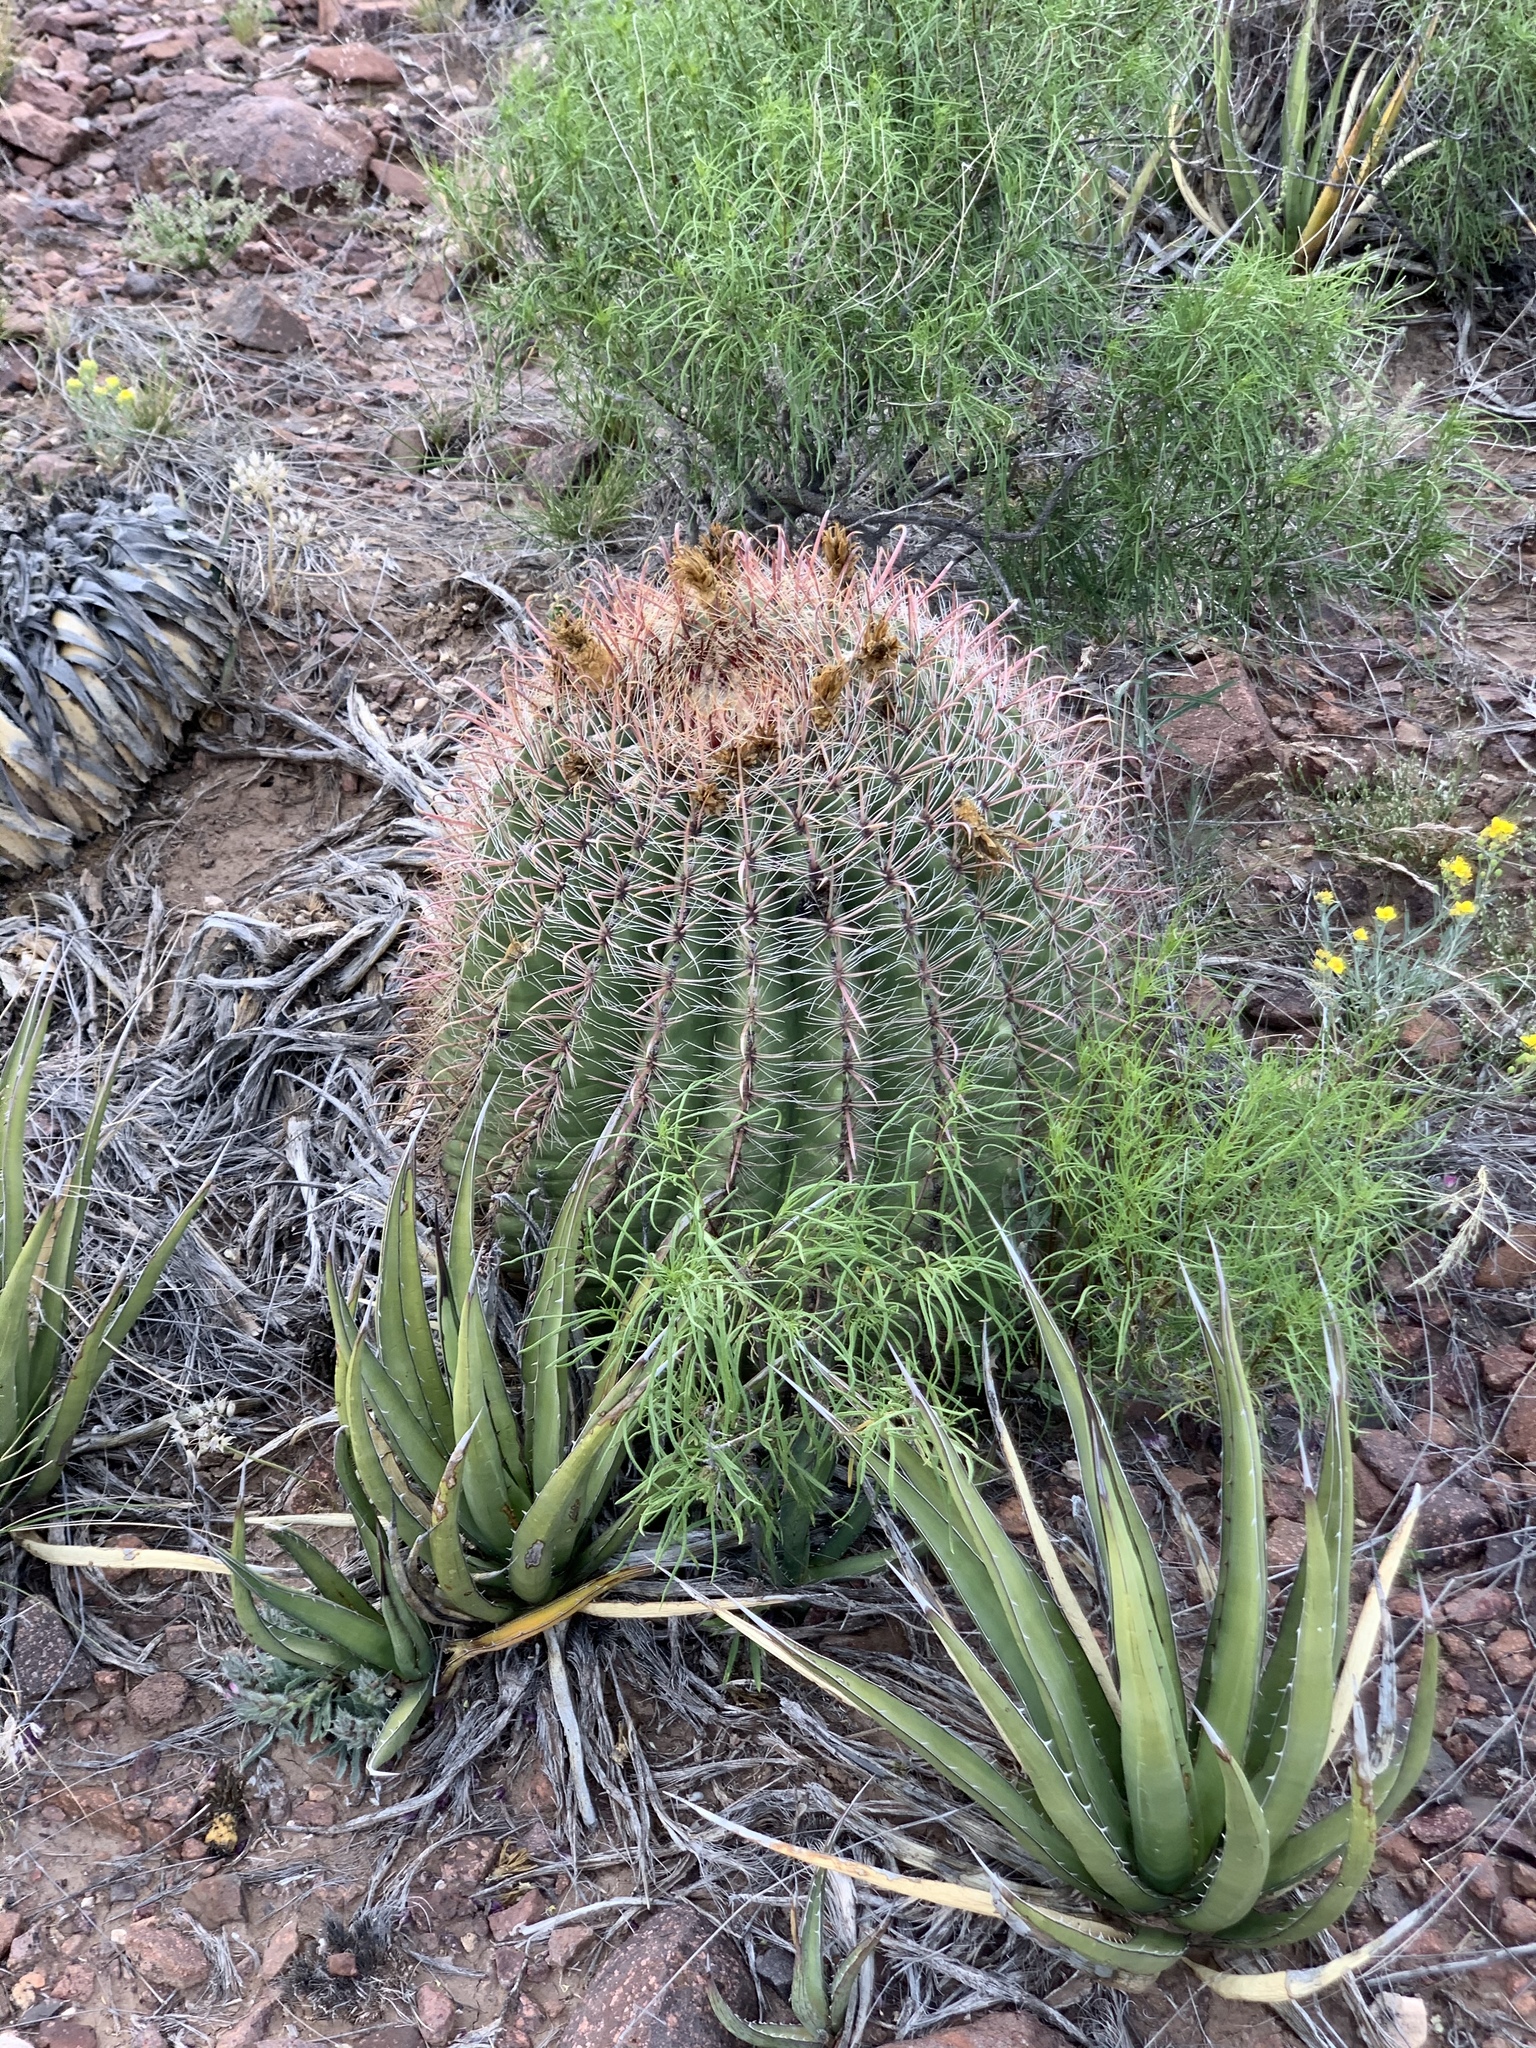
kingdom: Plantae
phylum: Tracheophyta
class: Magnoliopsida
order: Caryophyllales
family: Cactaceae
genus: Ferocactus
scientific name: Ferocactus wislizeni
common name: Candy barrel cactus
